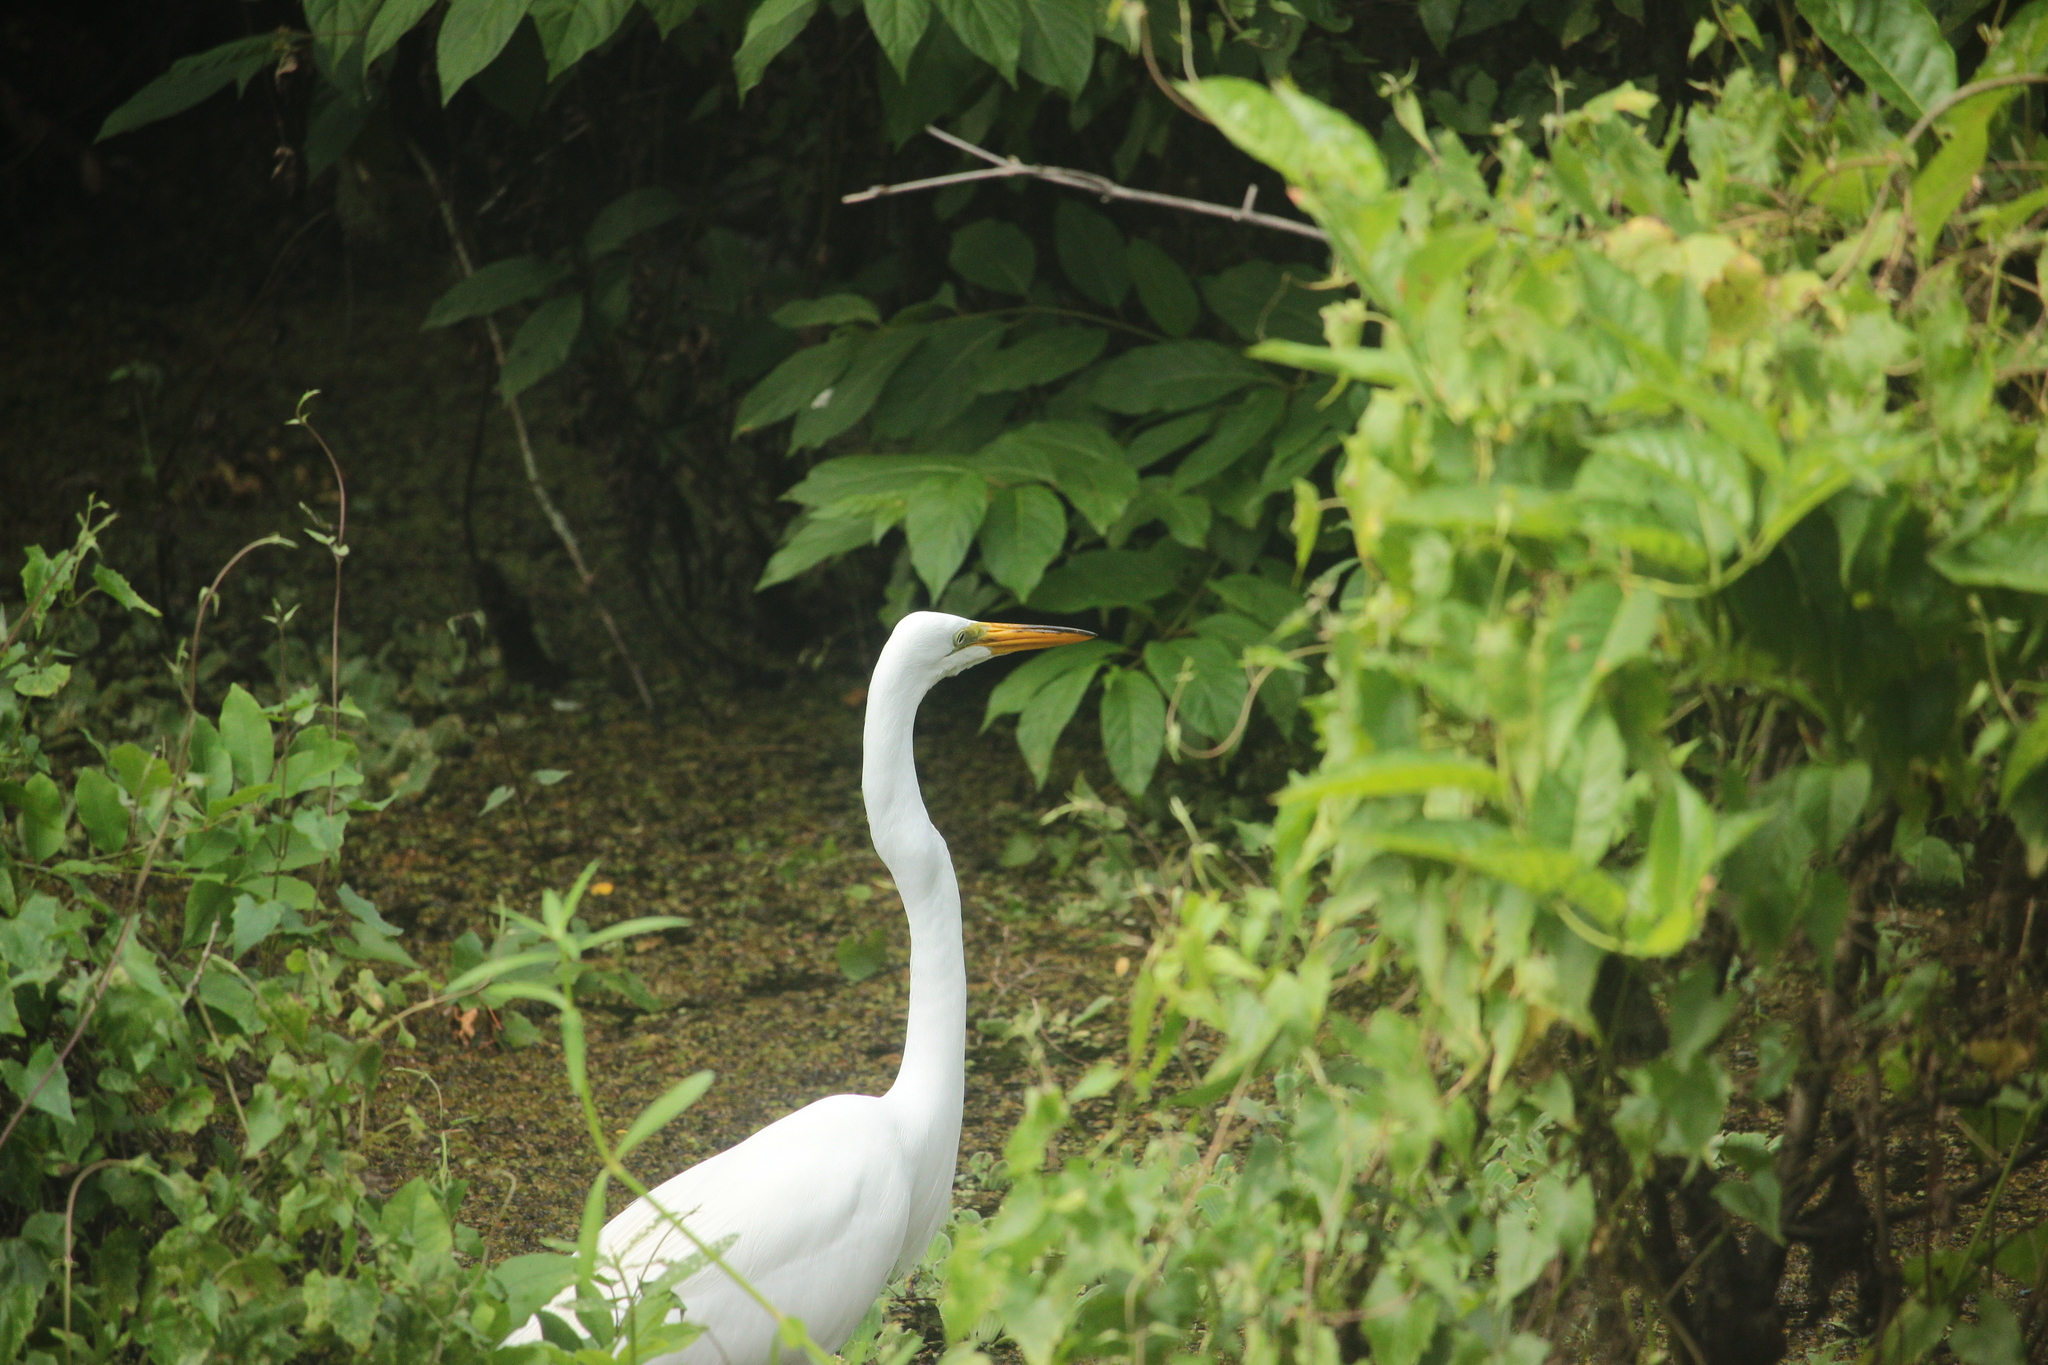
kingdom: Animalia
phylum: Chordata
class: Aves
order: Pelecaniformes
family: Ardeidae
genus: Ardea
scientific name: Ardea alba
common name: Great egret
